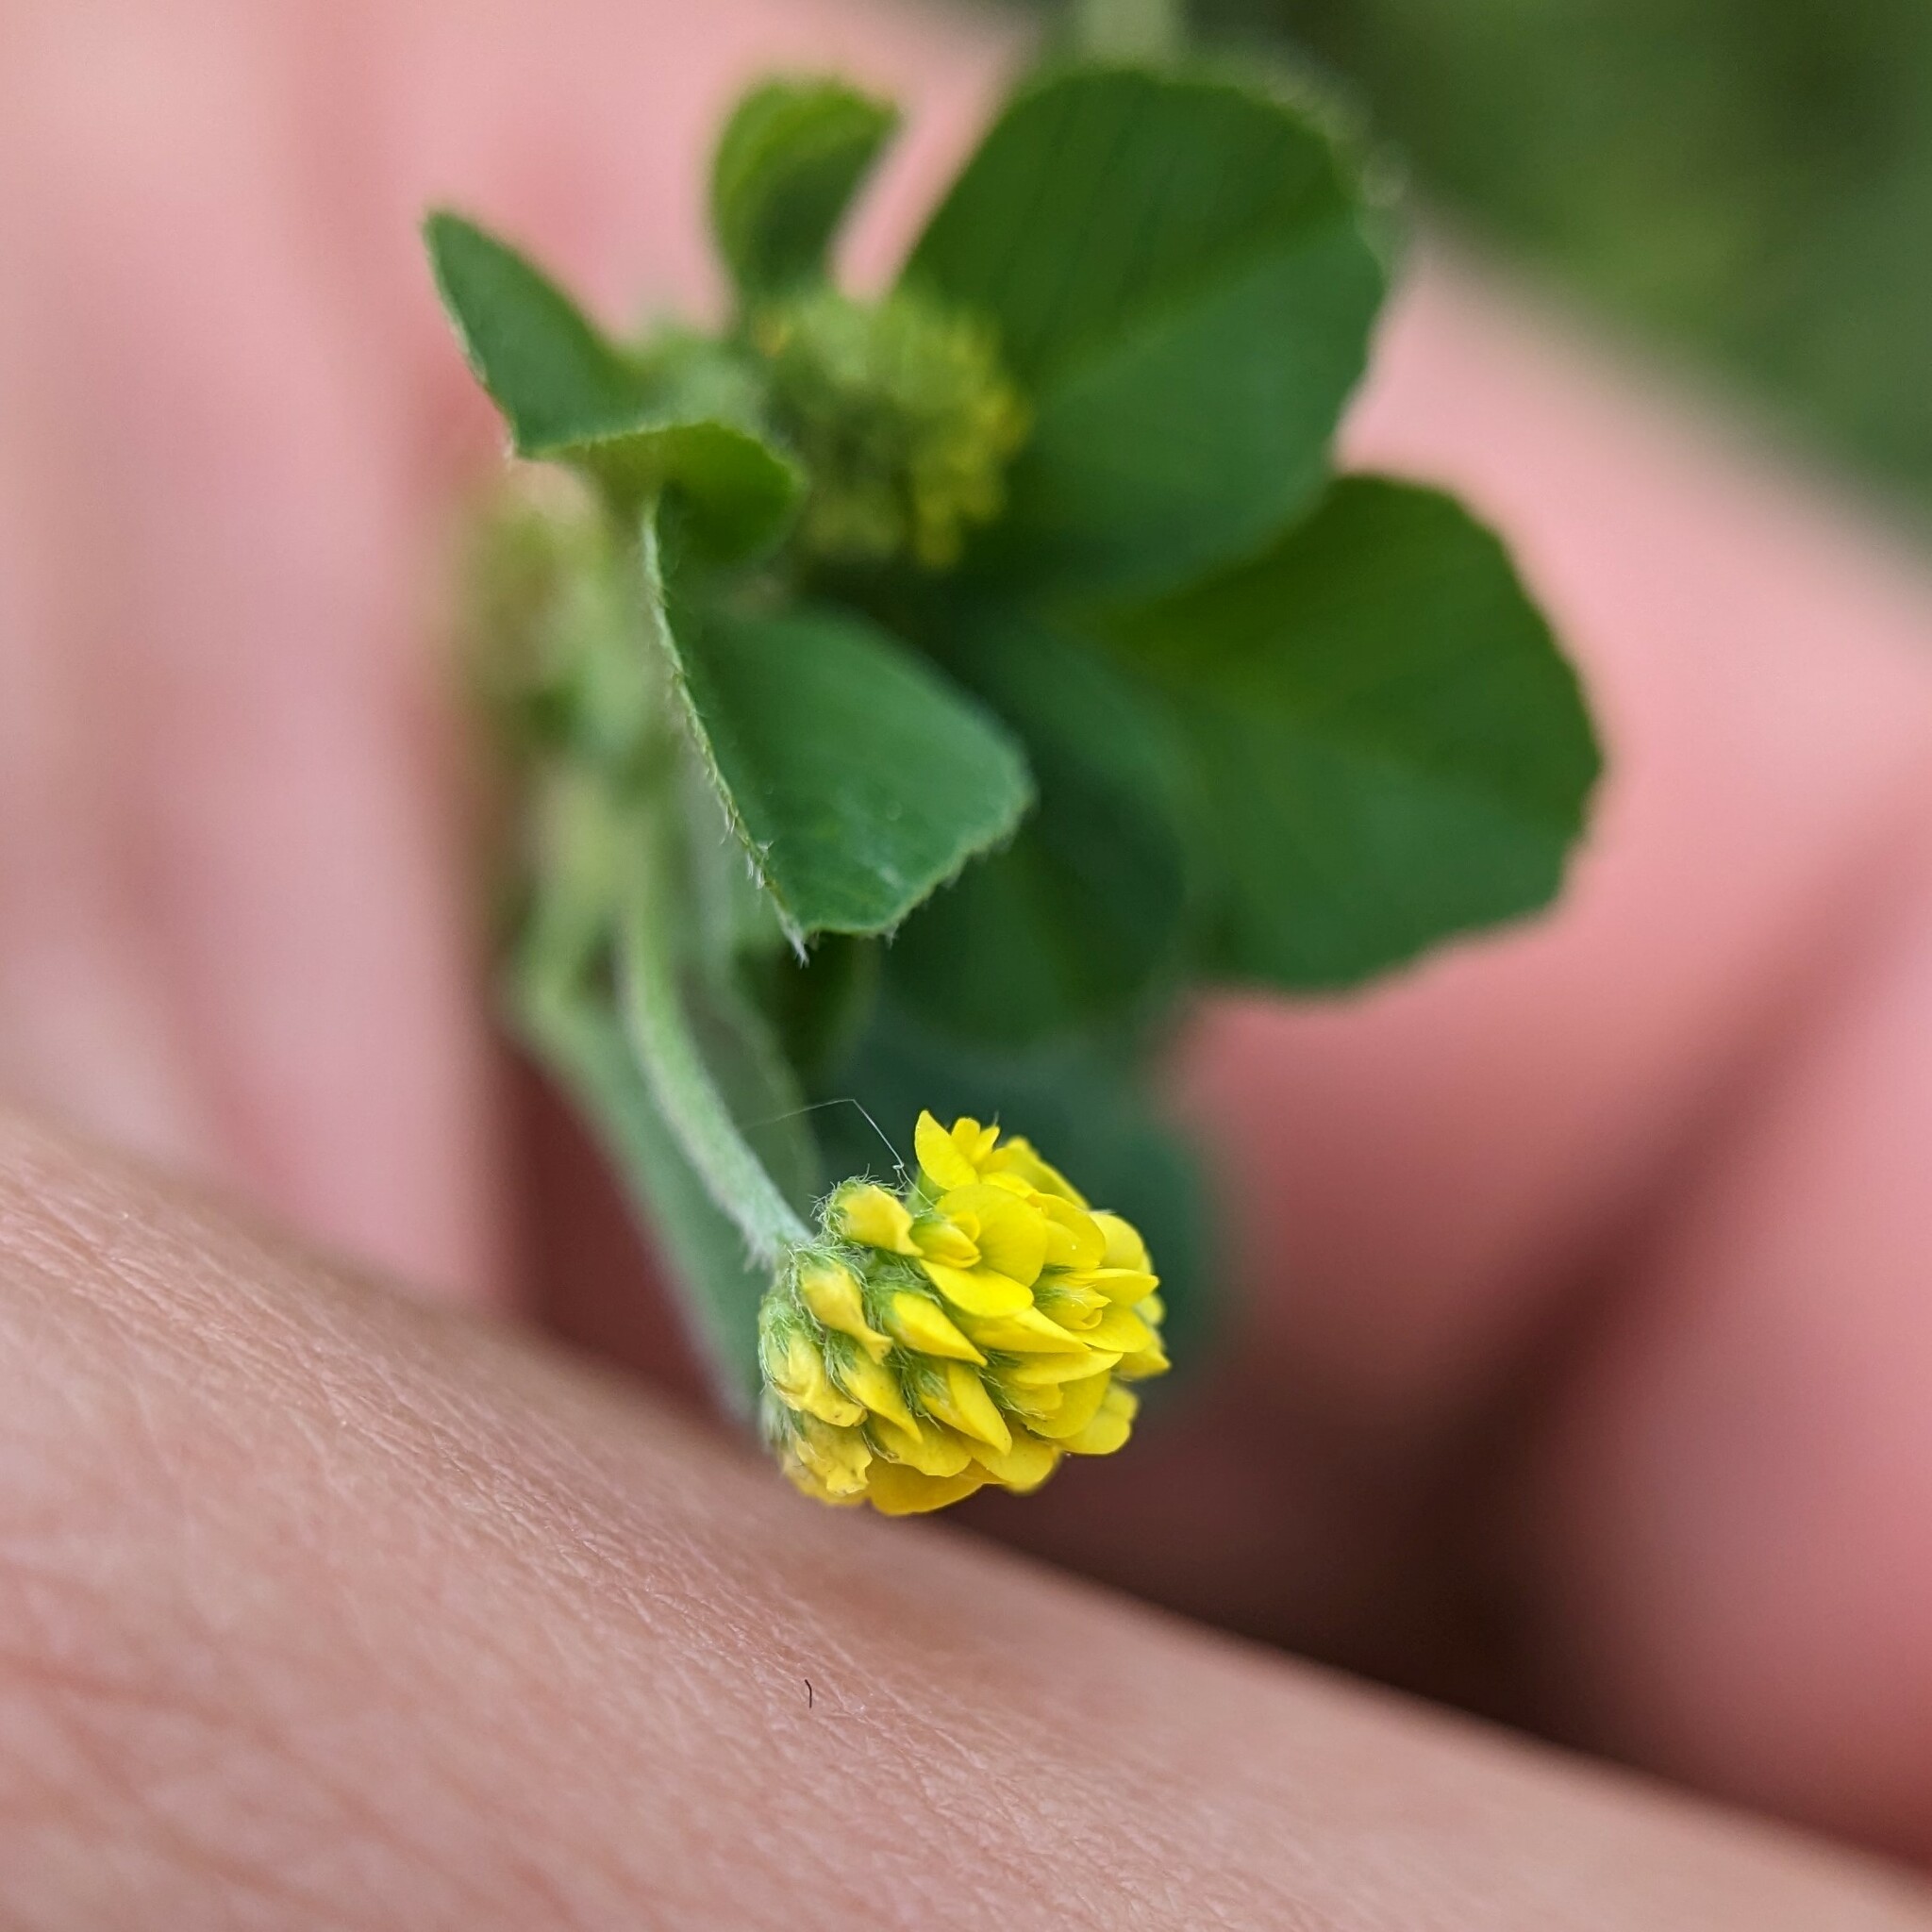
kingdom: Plantae
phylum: Tracheophyta
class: Magnoliopsida
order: Fabales
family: Fabaceae
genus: Medicago
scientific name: Medicago lupulina
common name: Black medick
